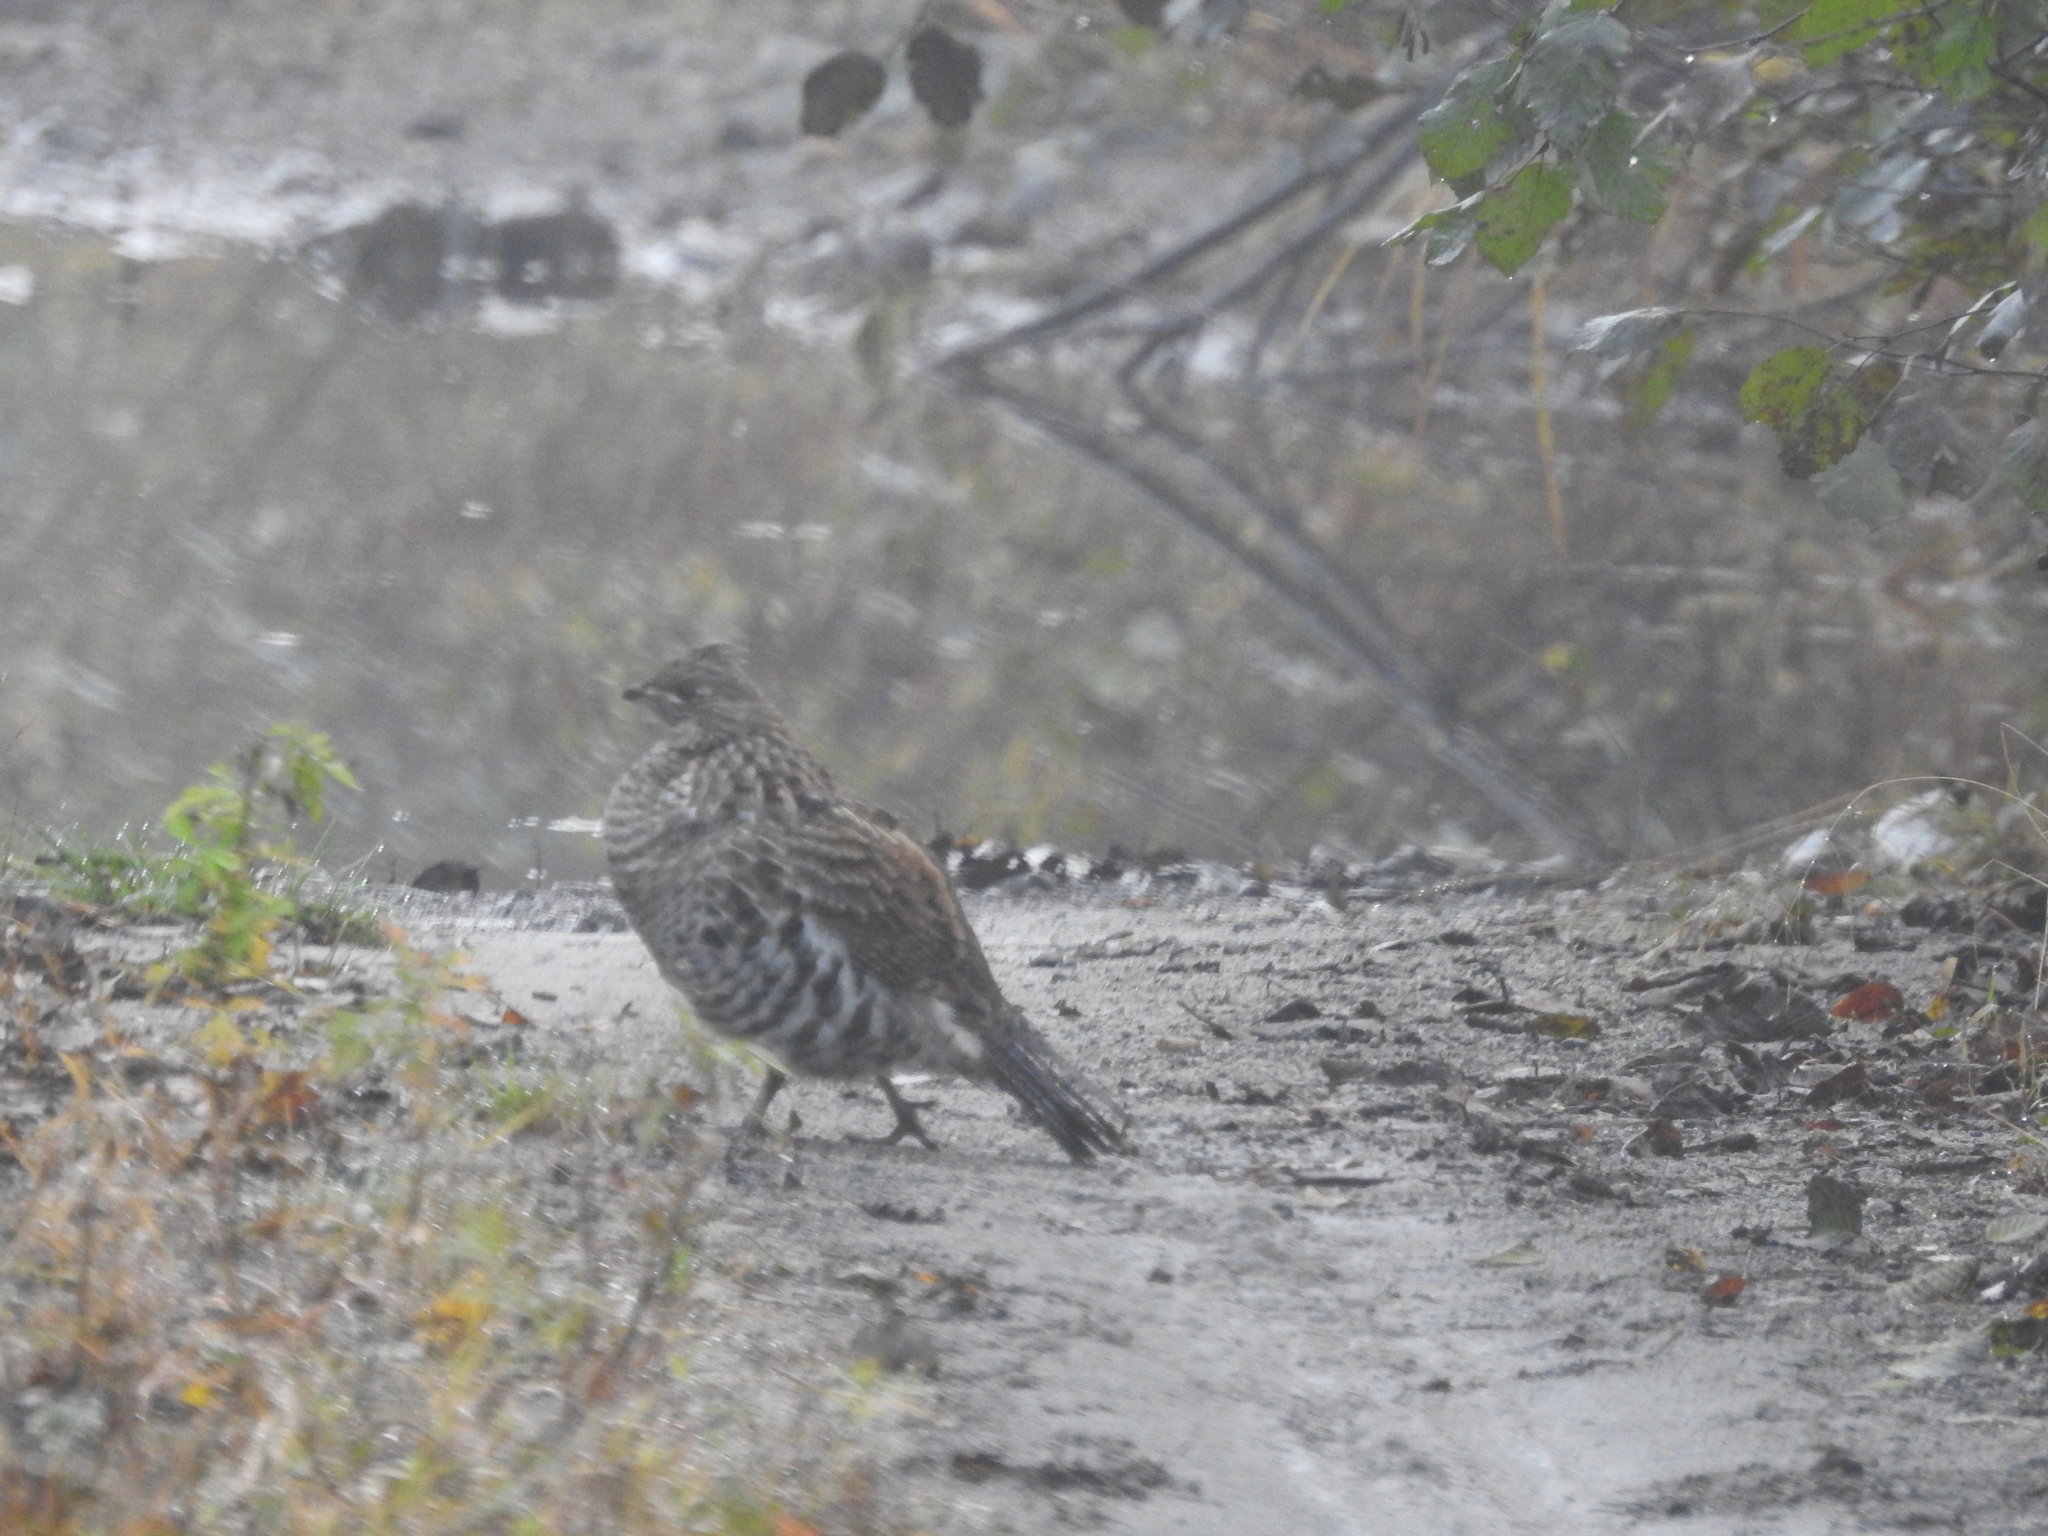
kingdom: Animalia
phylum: Chordata
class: Aves
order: Galliformes
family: Phasianidae
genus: Bonasa
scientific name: Bonasa umbellus
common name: Ruffed grouse
